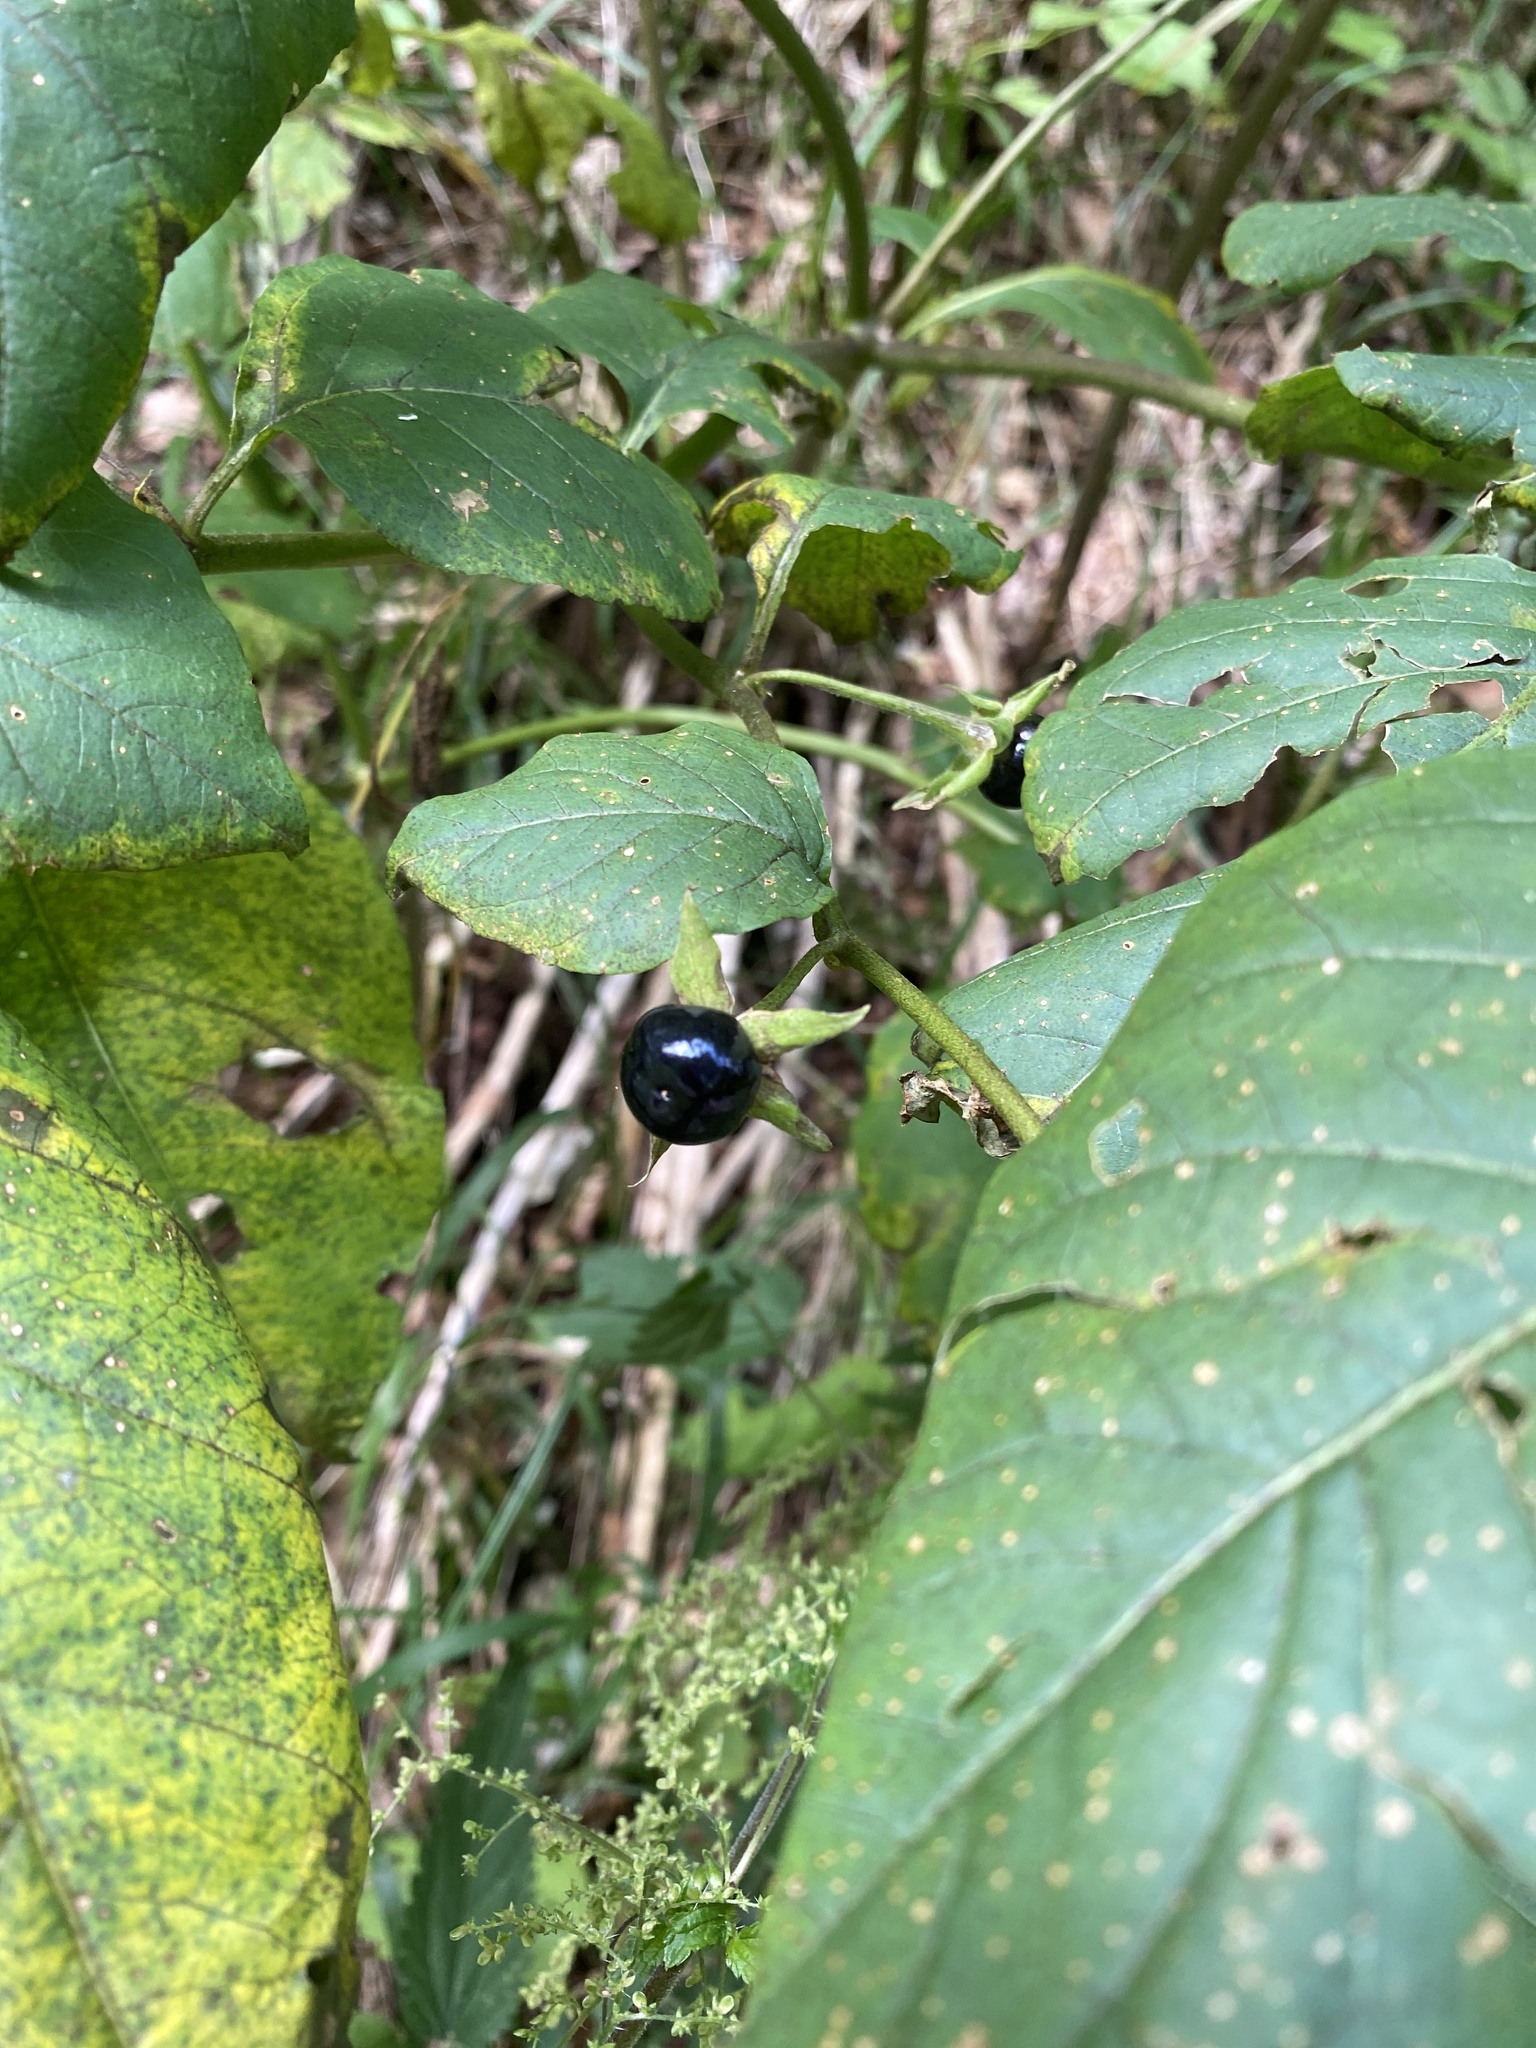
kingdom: Plantae
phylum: Tracheophyta
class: Magnoliopsida
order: Solanales
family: Solanaceae
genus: Atropa
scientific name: Atropa belladonna
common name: Deadly nightshade
